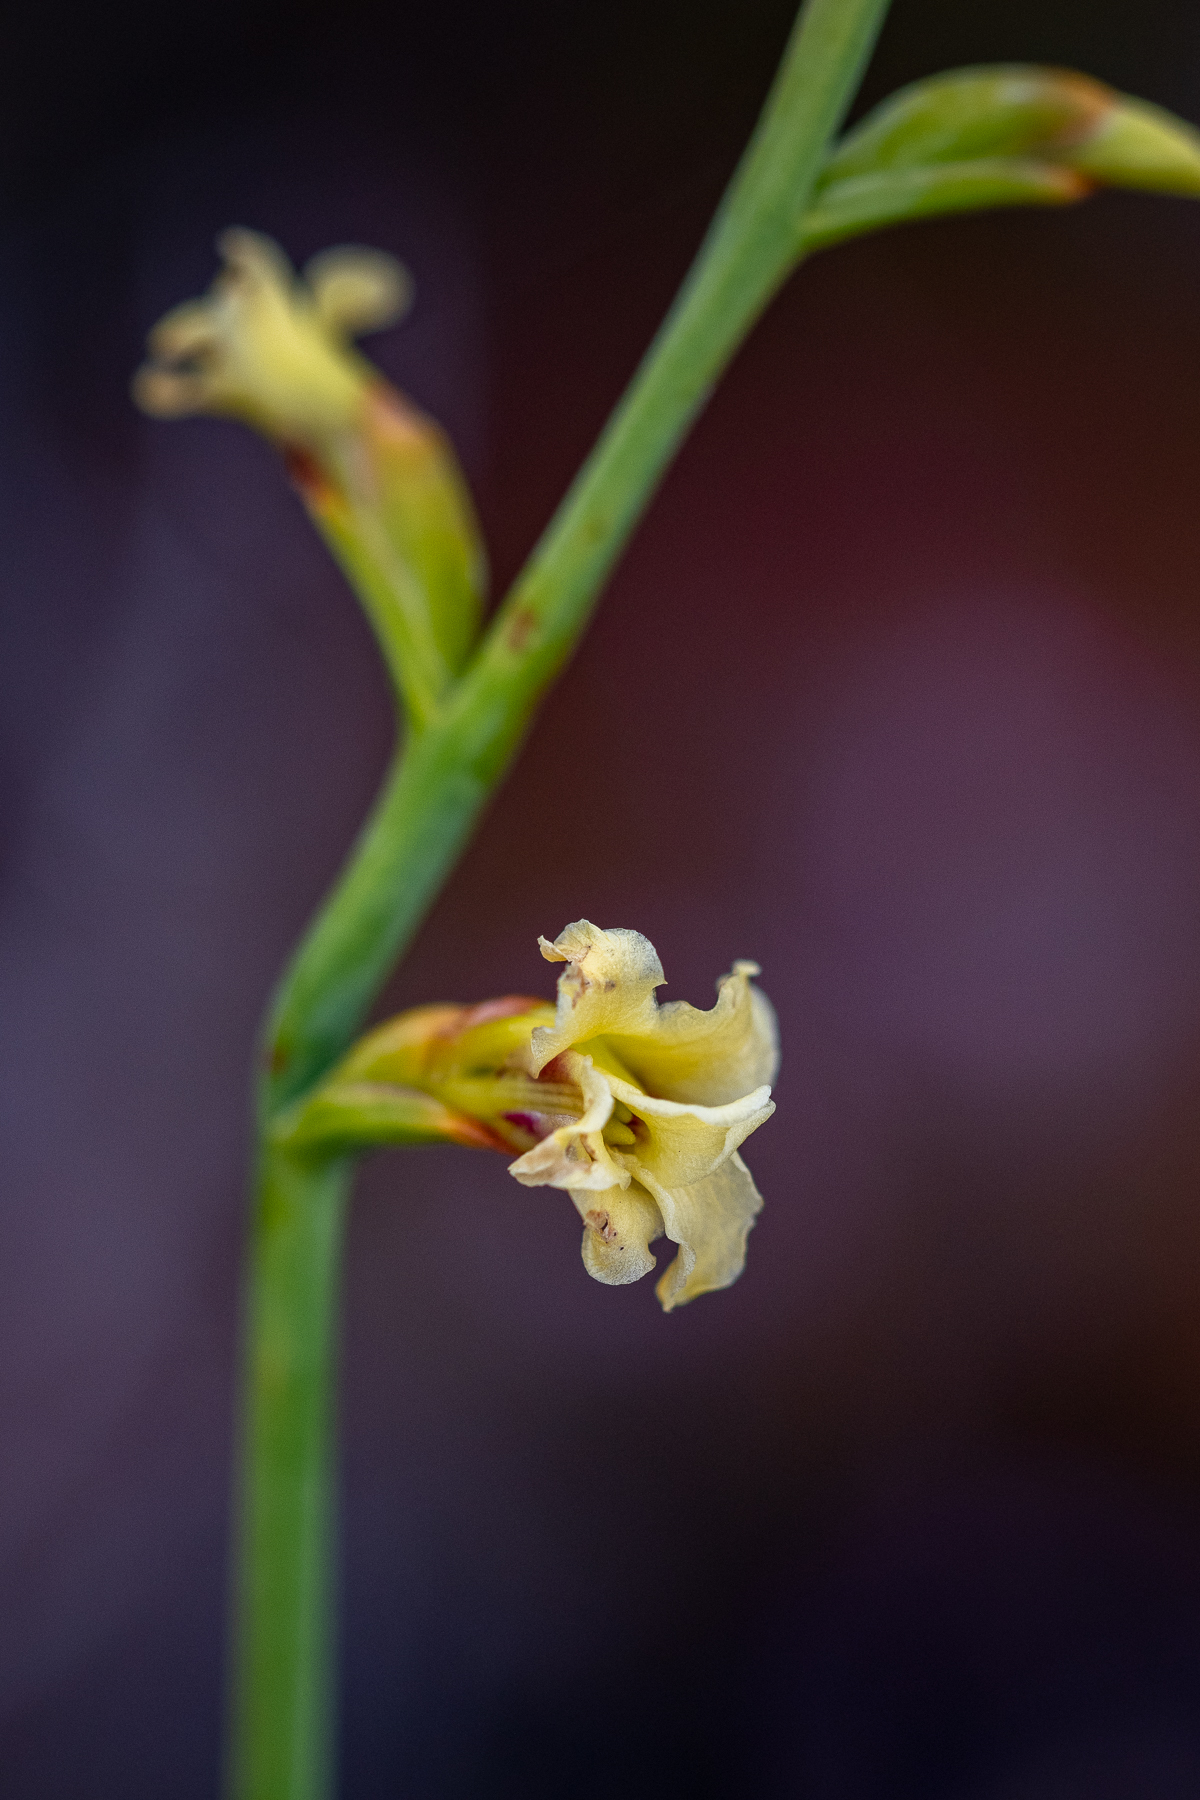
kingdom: Plantae
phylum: Tracheophyta
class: Liliopsida
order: Asparagales
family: Iridaceae
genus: Tritoniopsis
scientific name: Tritoniopsis unguicularis
